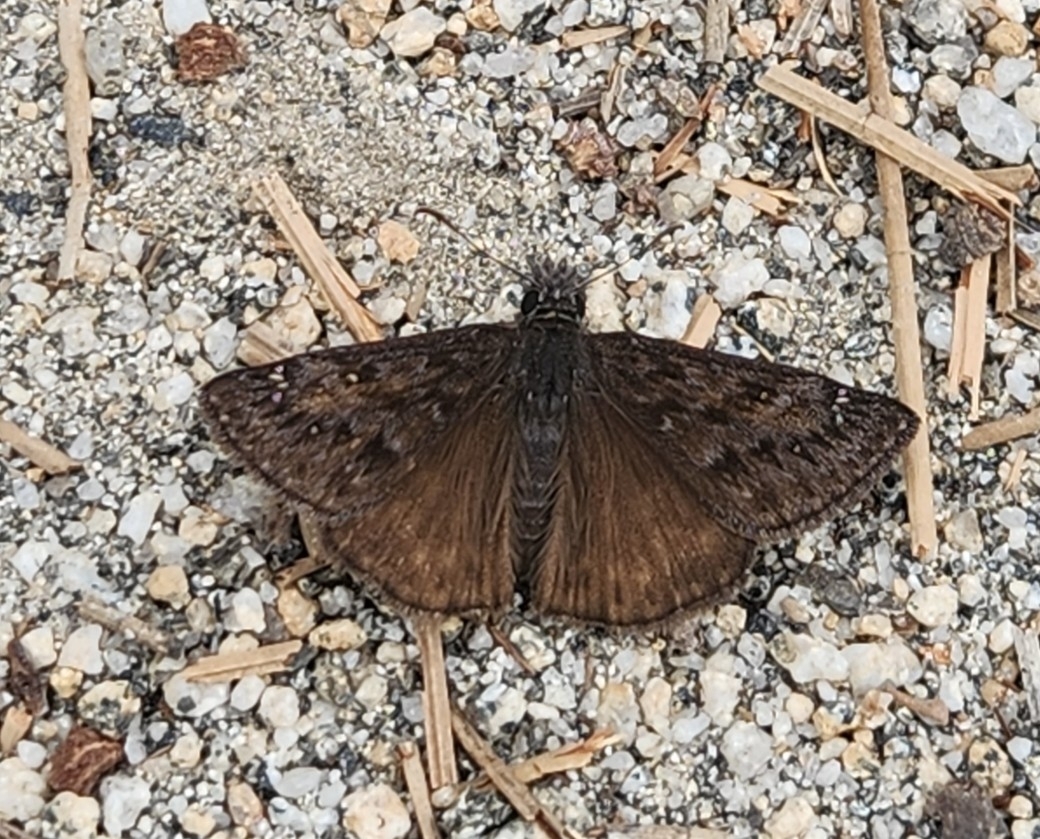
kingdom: Animalia
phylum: Arthropoda
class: Insecta
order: Lepidoptera
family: Hesperiidae
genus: Erynnis
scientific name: Erynnis propertius
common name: Propertius duskywing
